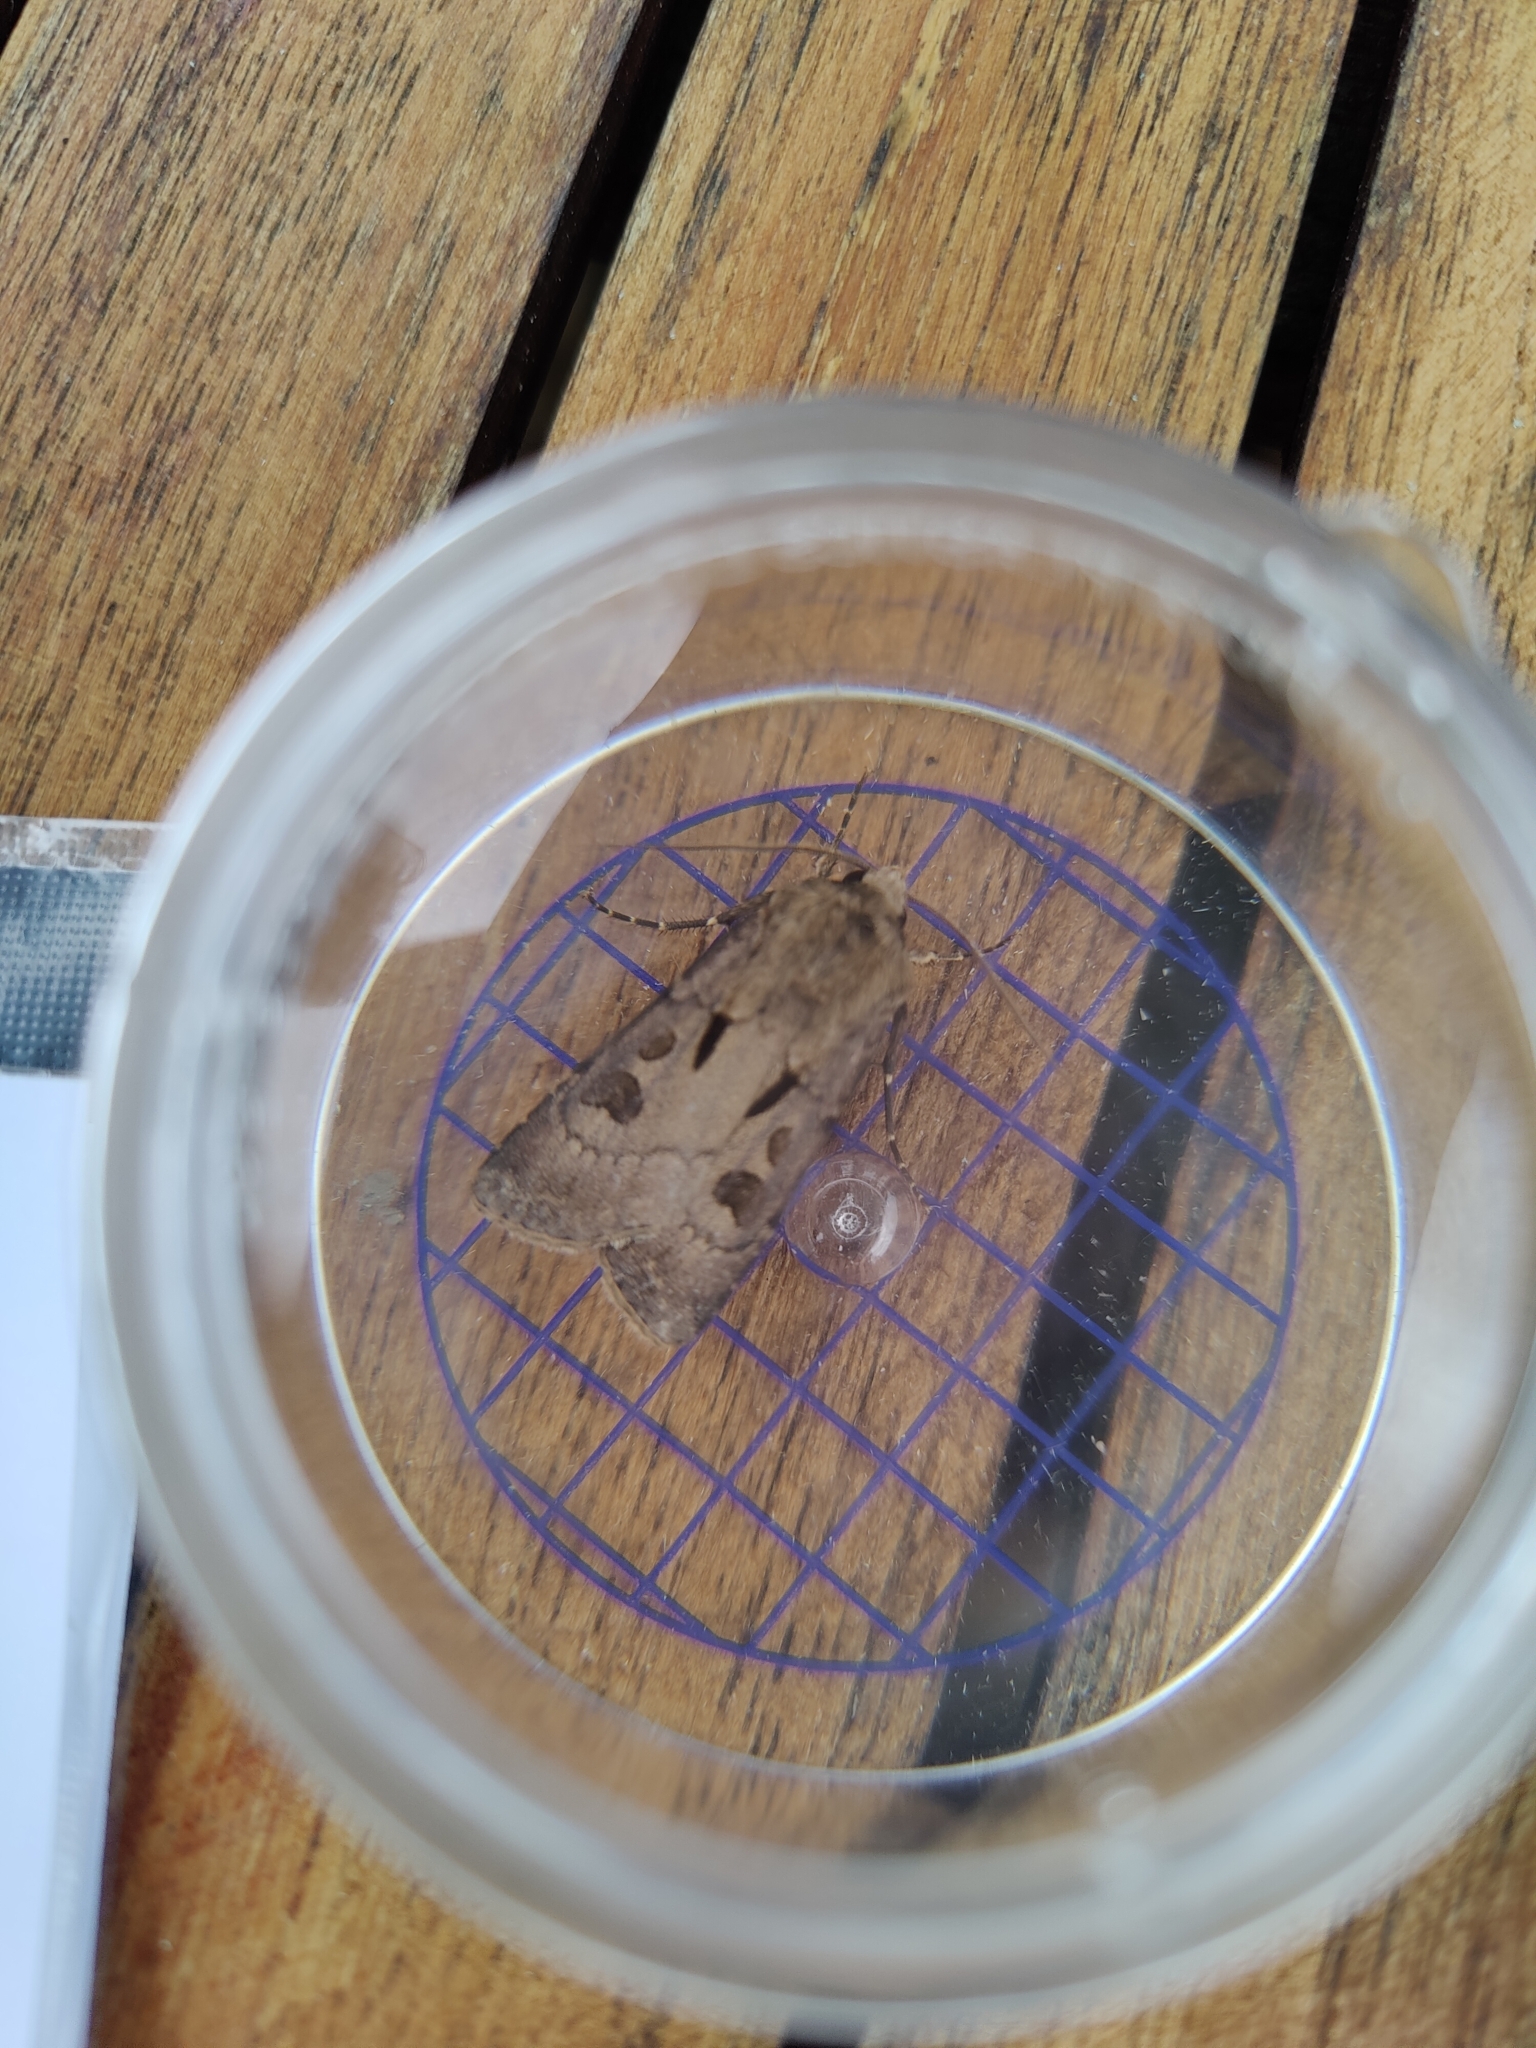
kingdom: Animalia
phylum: Arthropoda
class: Insecta
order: Lepidoptera
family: Noctuidae
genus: Agrotis
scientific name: Agrotis exclamationis
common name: Heart and dart
